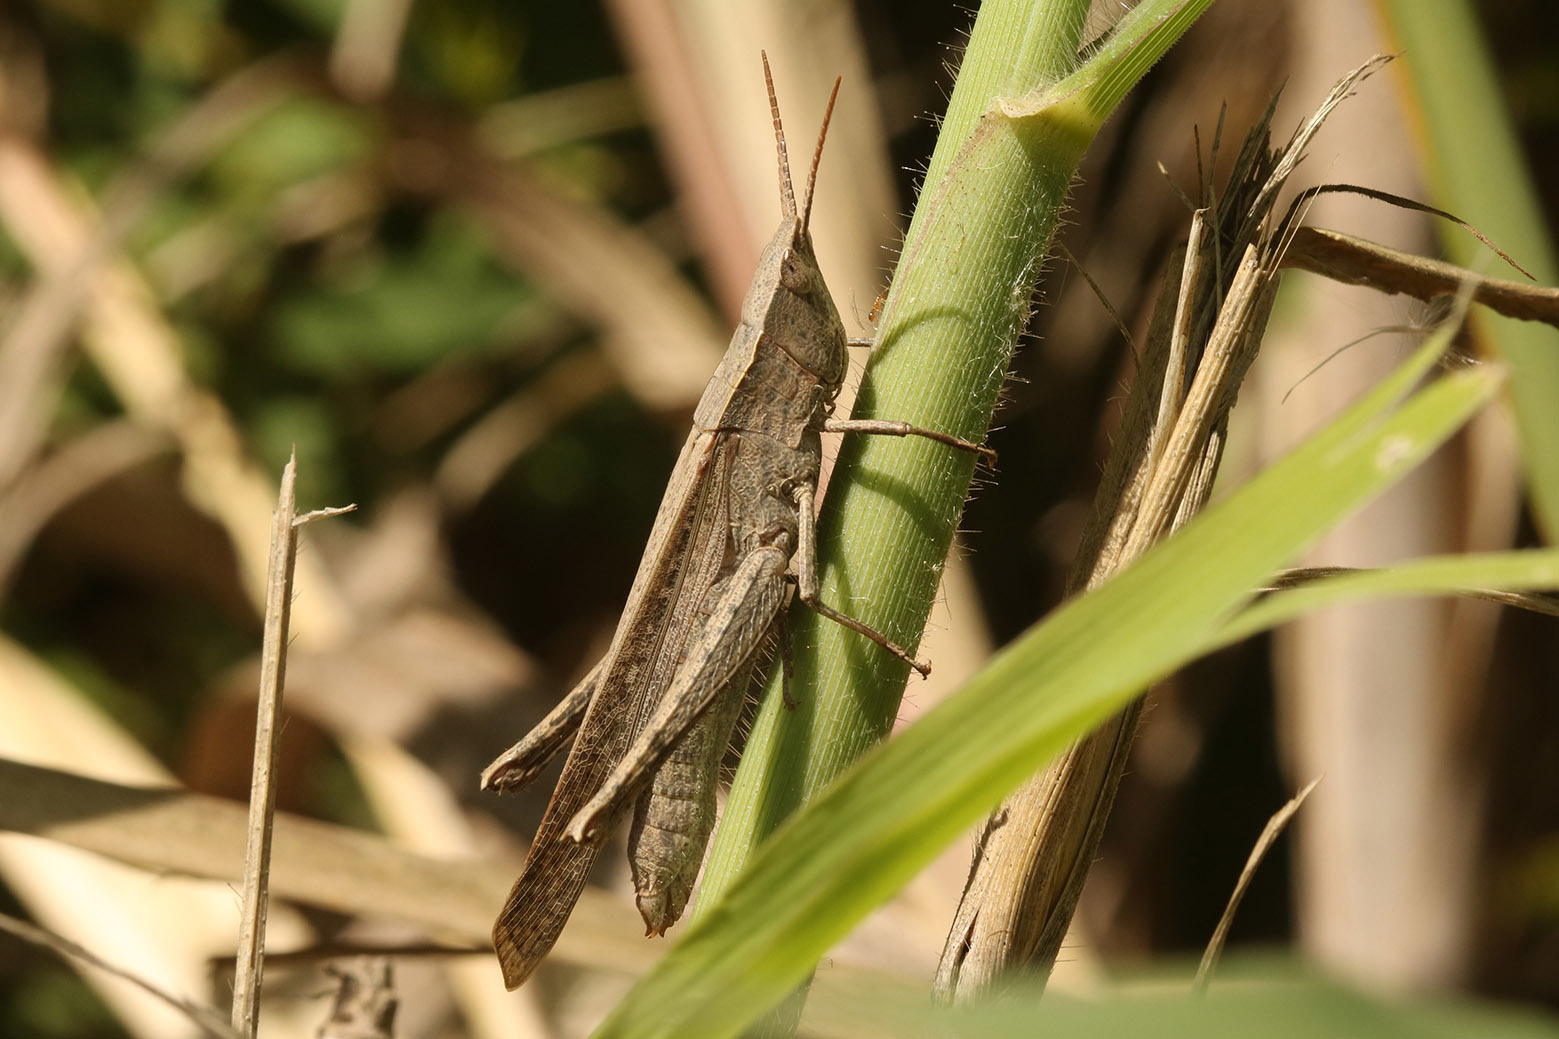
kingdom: Animalia
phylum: Arthropoda
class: Insecta
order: Orthoptera
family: Acrididae
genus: Metaleptea
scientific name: Metaleptea adspersa
